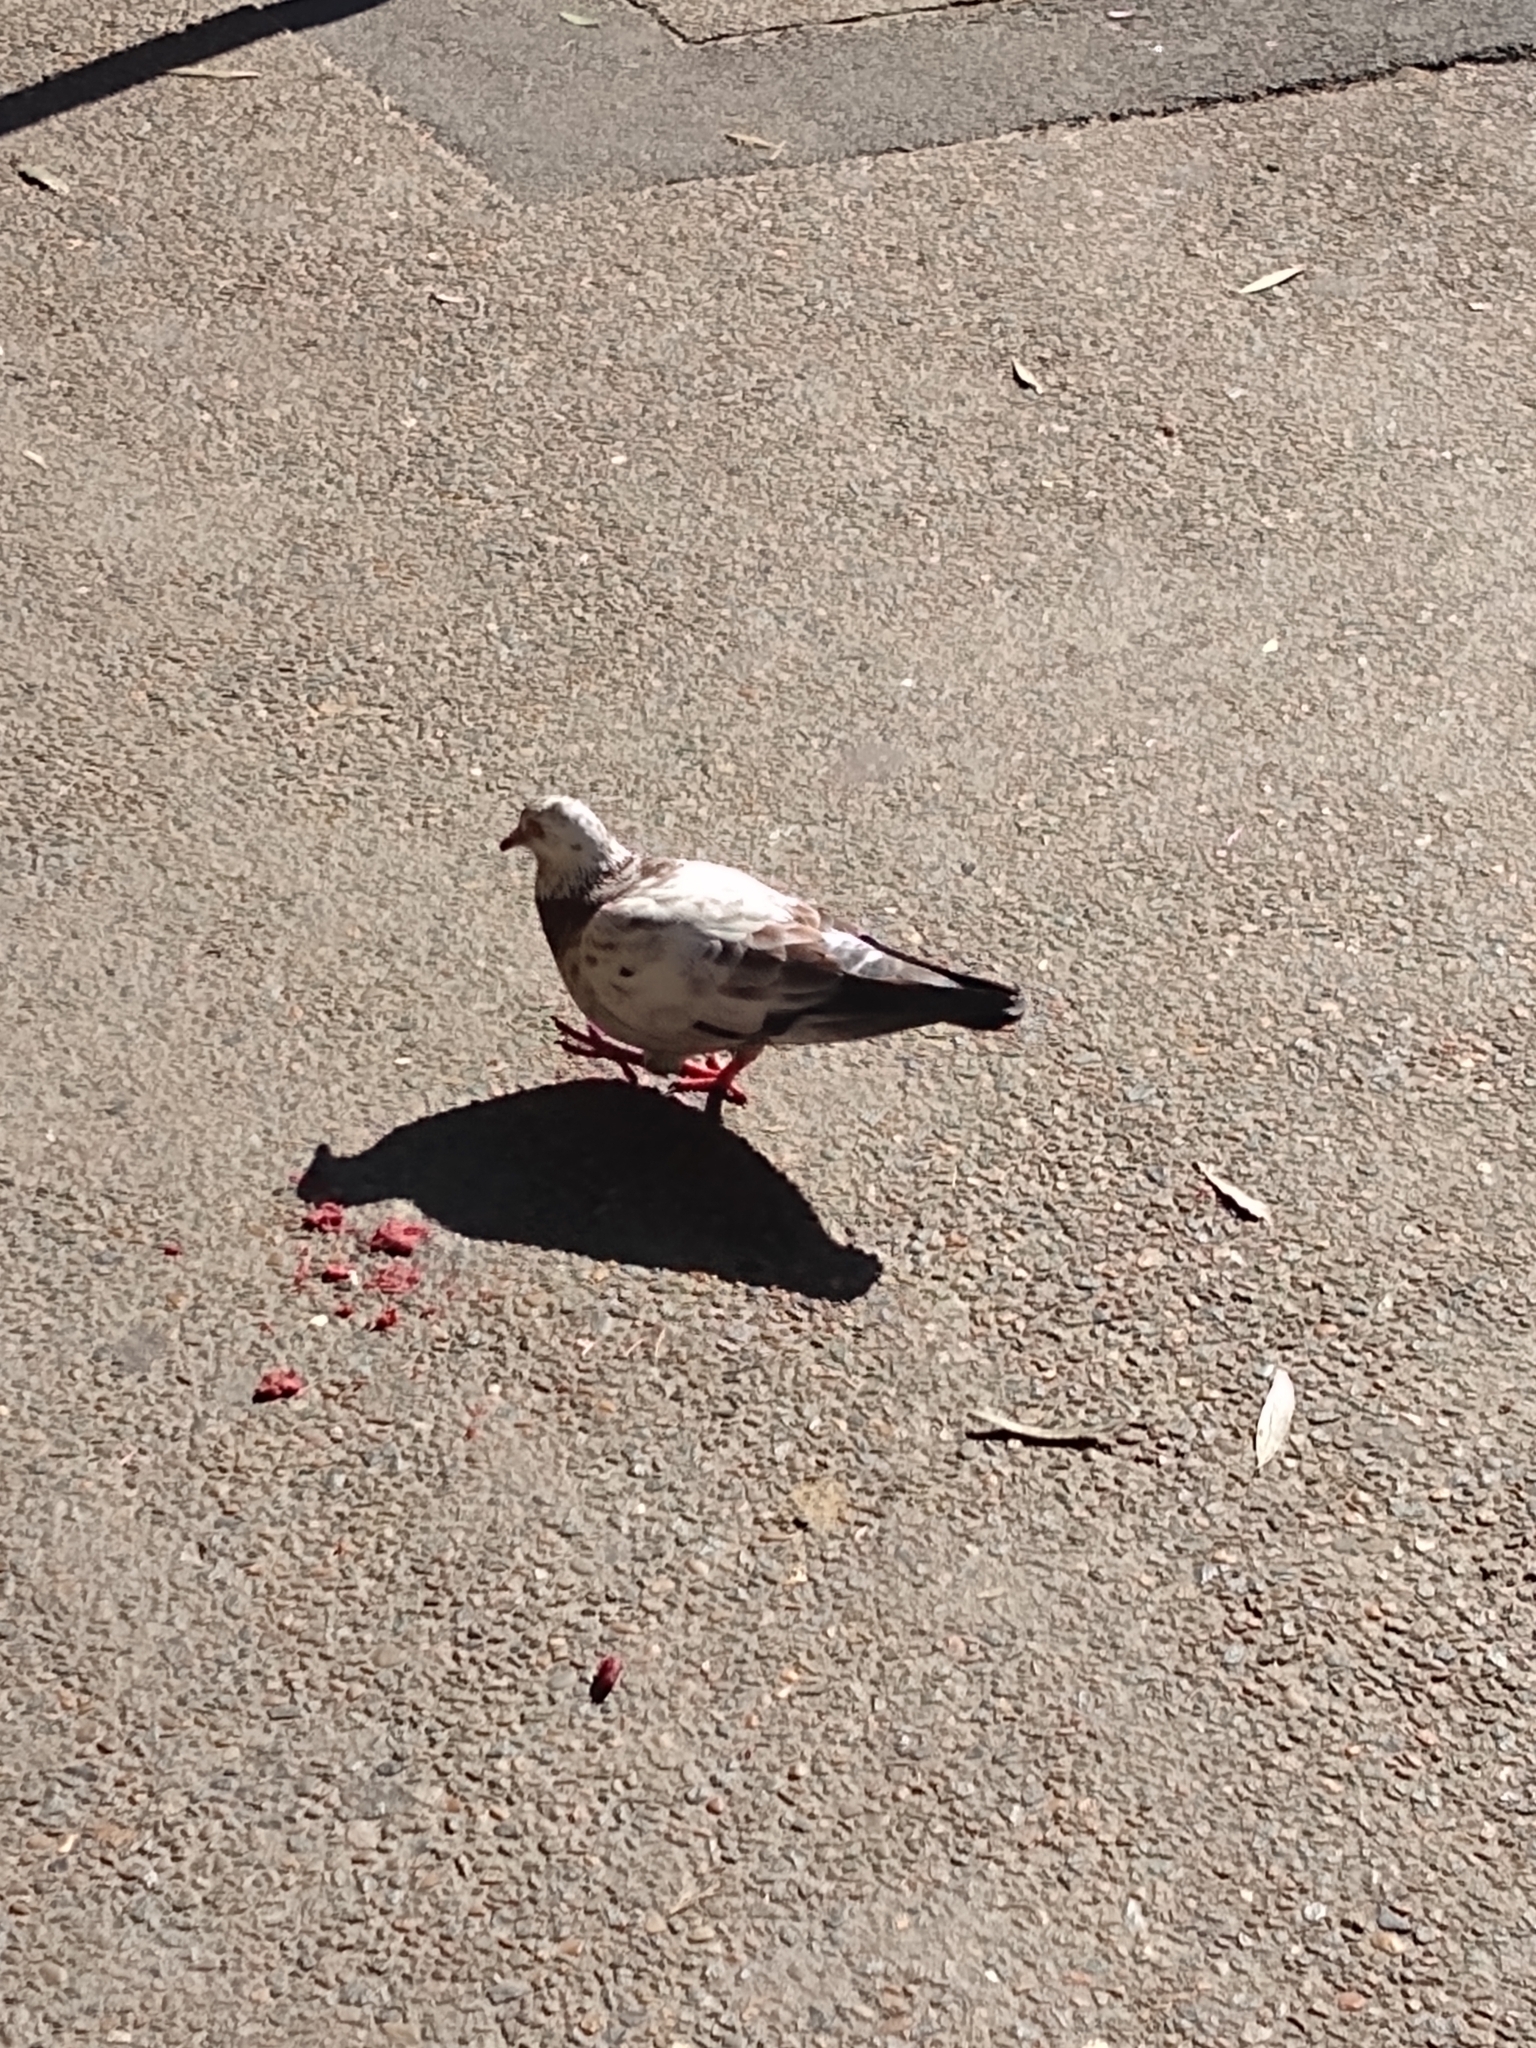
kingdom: Animalia
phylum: Chordata
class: Aves
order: Columbiformes
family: Columbidae
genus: Columba
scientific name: Columba livia
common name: Rock pigeon
